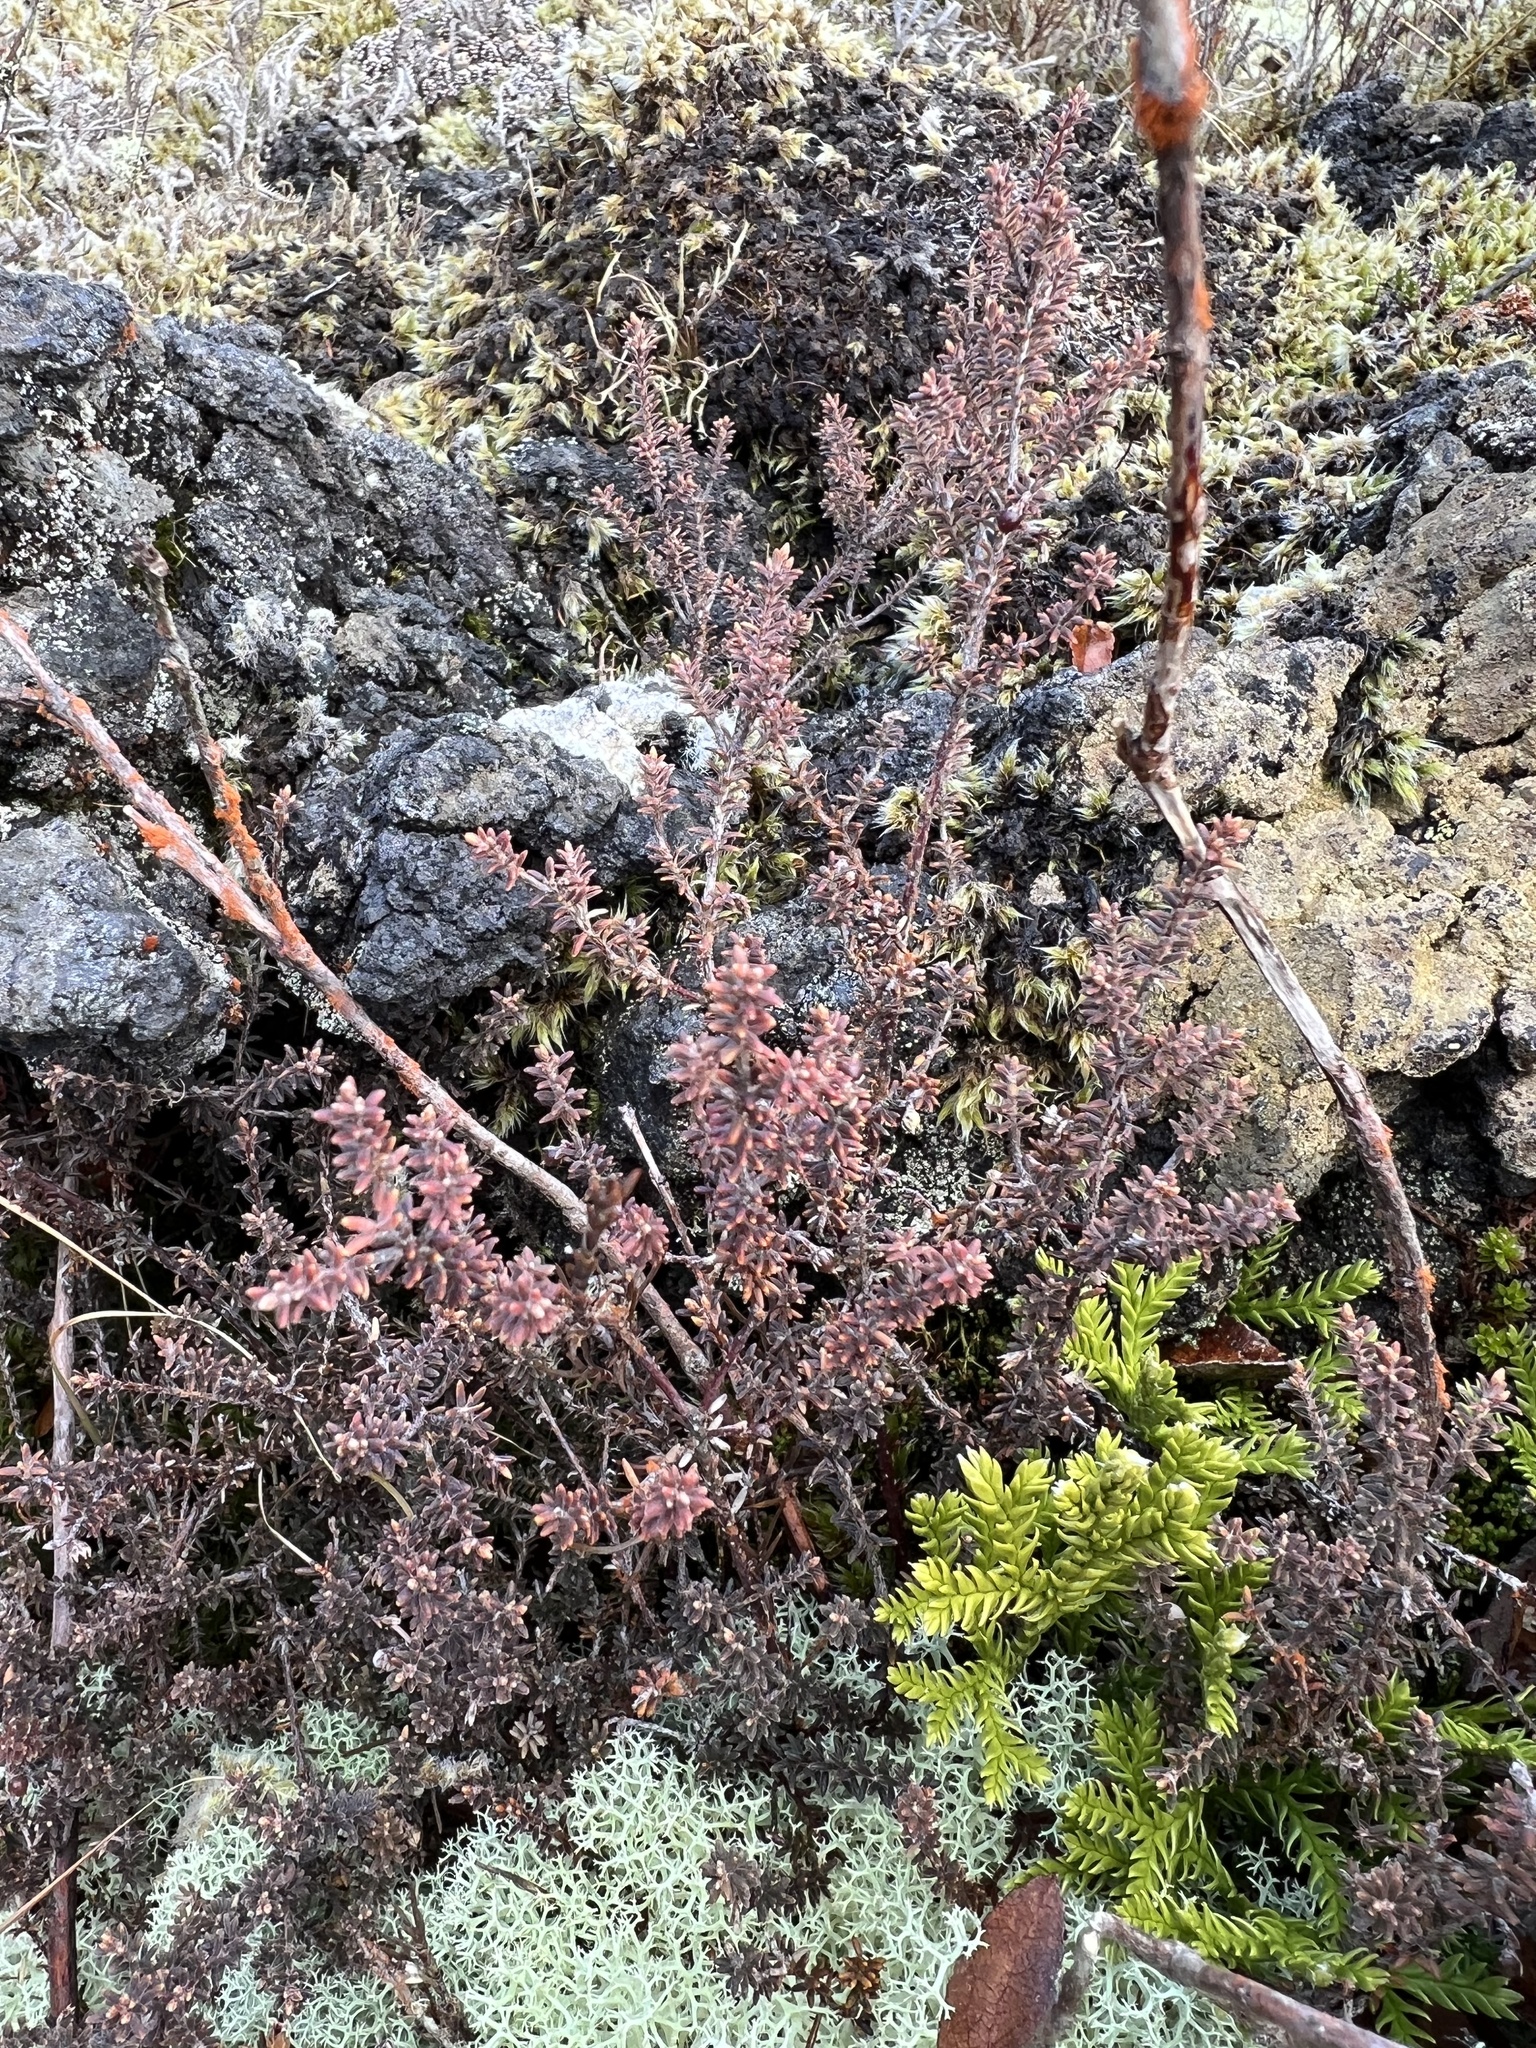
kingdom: Plantae
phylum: Tracheophyta
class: Magnoliopsida
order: Ericales
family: Ericaceae
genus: Androstoma
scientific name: Androstoma empetrifolia
